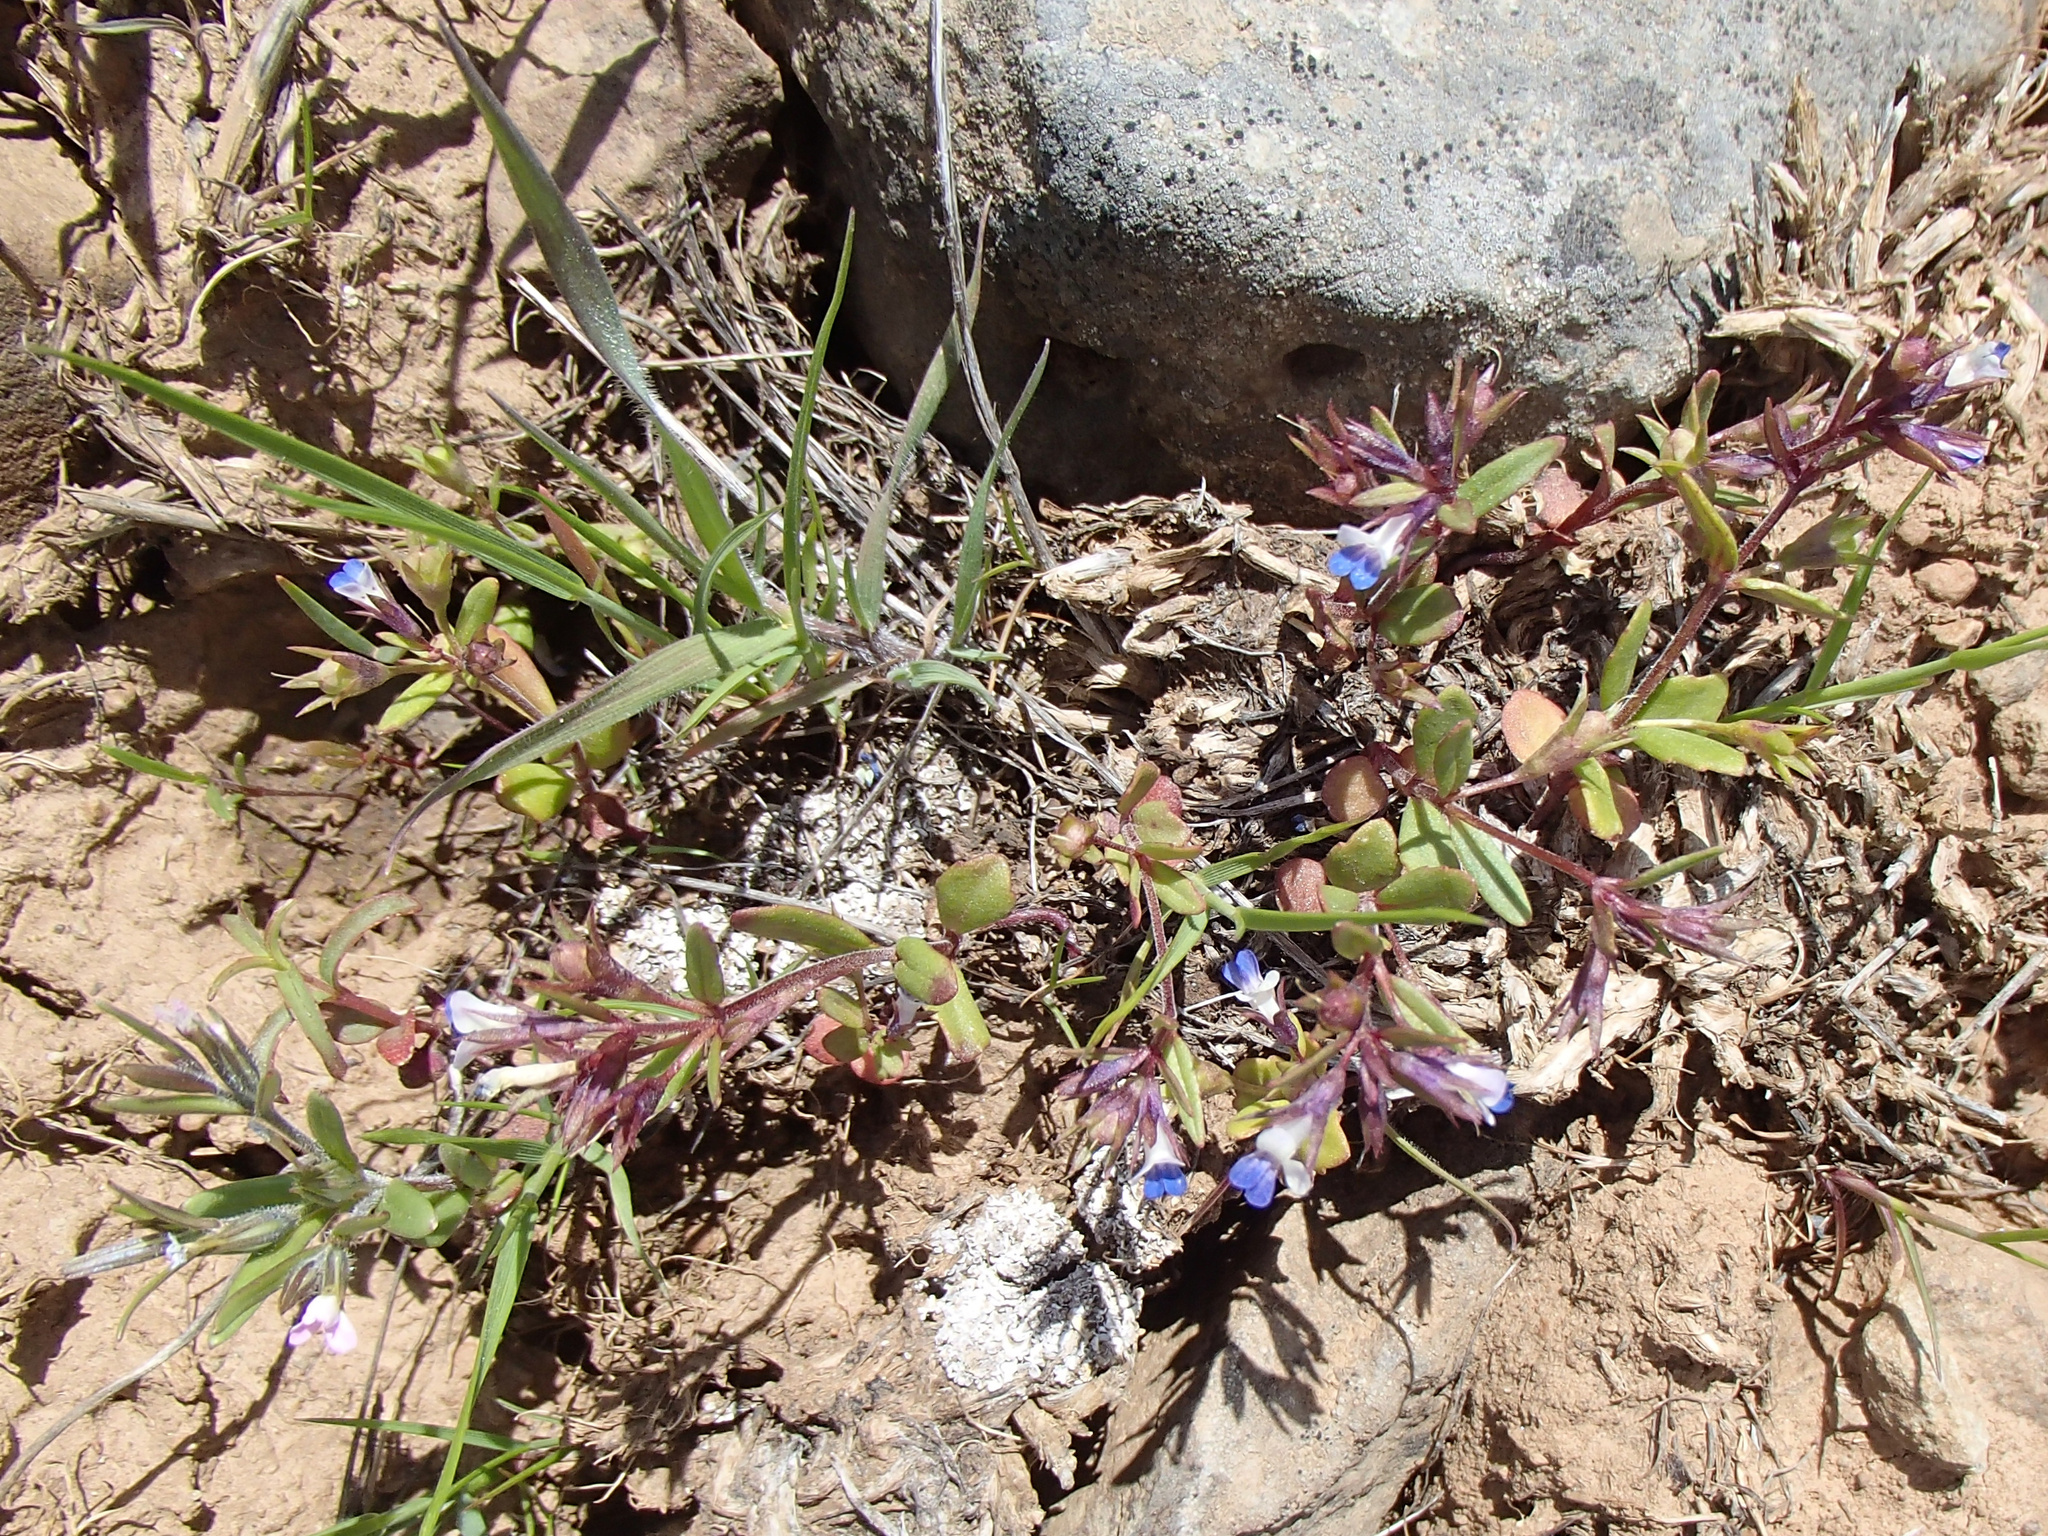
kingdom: Plantae
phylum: Tracheophyta
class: Magnoliopsida
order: Lamiales
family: Plantaginaceae
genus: Collinsia
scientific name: Collinsia parviflora
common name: Blue-lips
